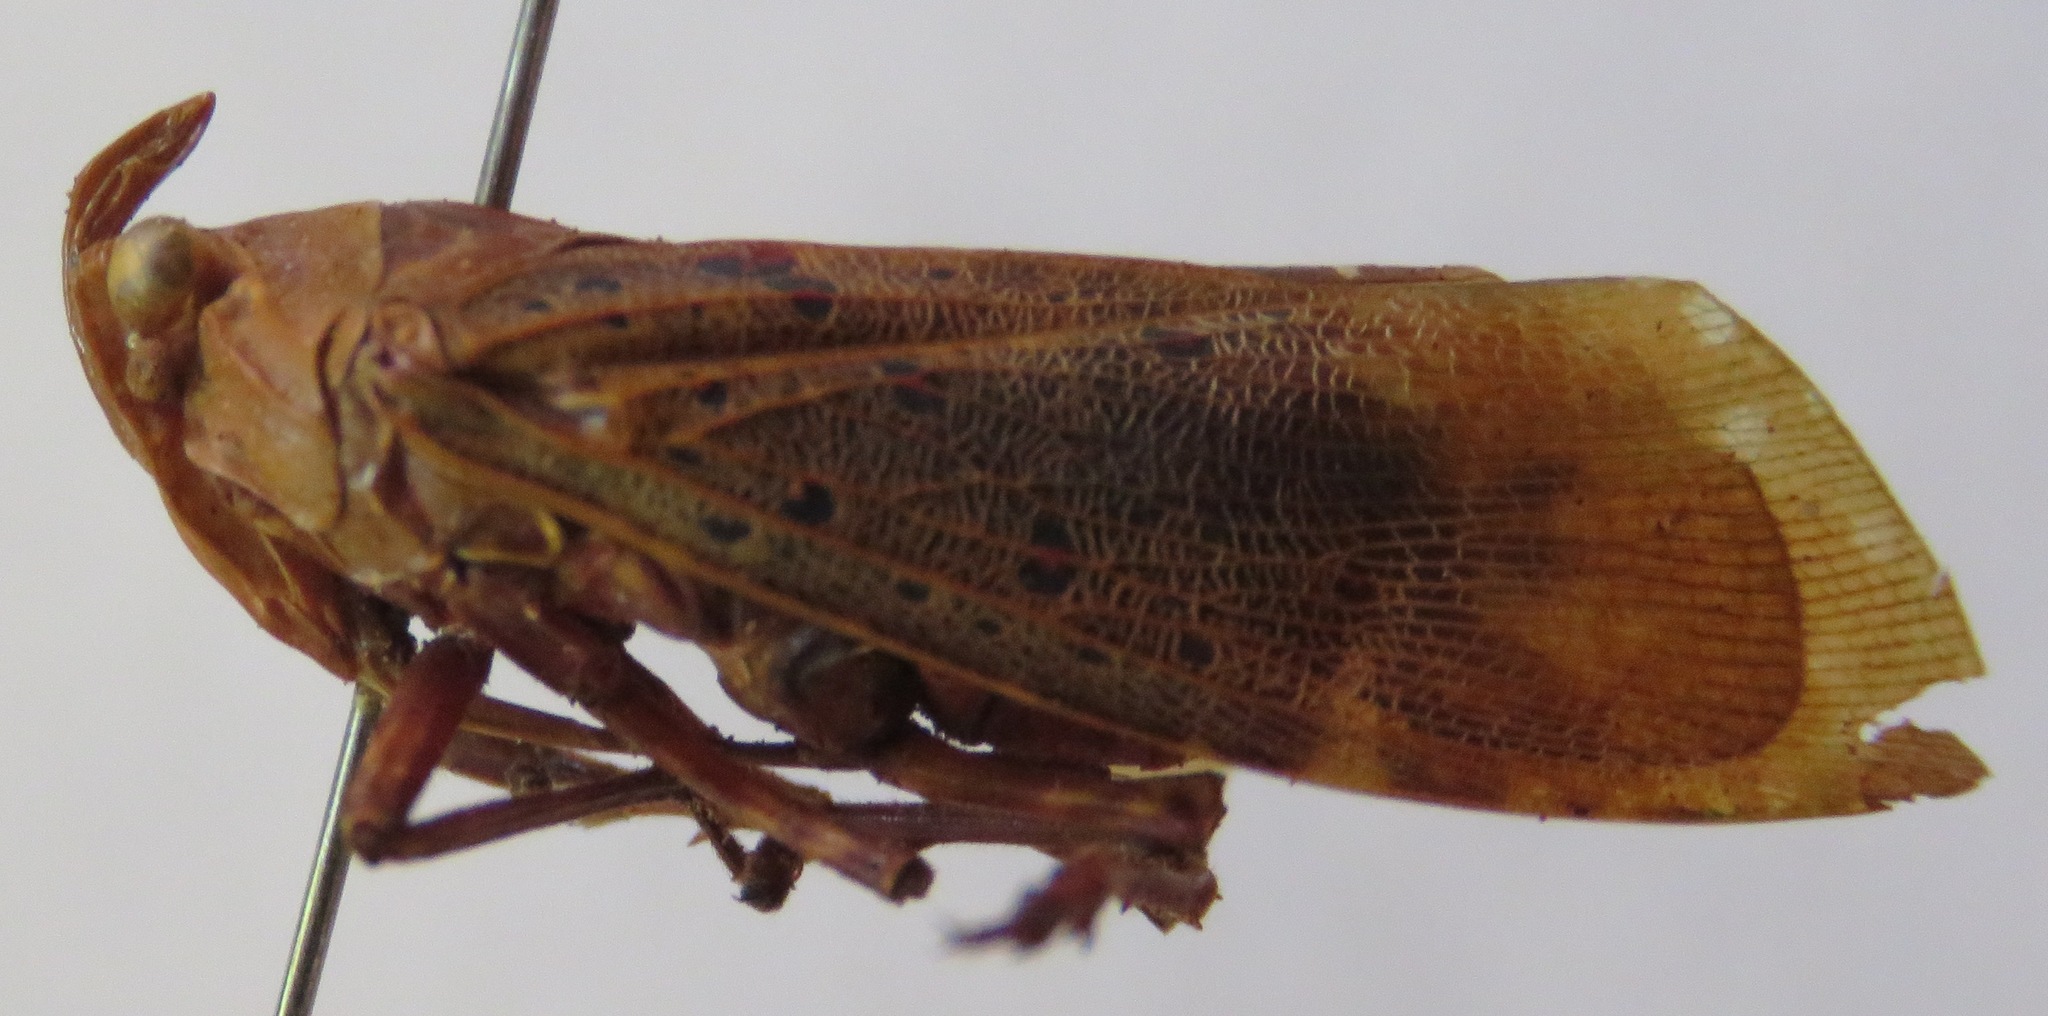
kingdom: Animalia
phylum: Arthropoda
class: Insecta
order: Hemiptera
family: Fulgoridae
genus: Copidocephala
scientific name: Copidocephala viridiguttata
